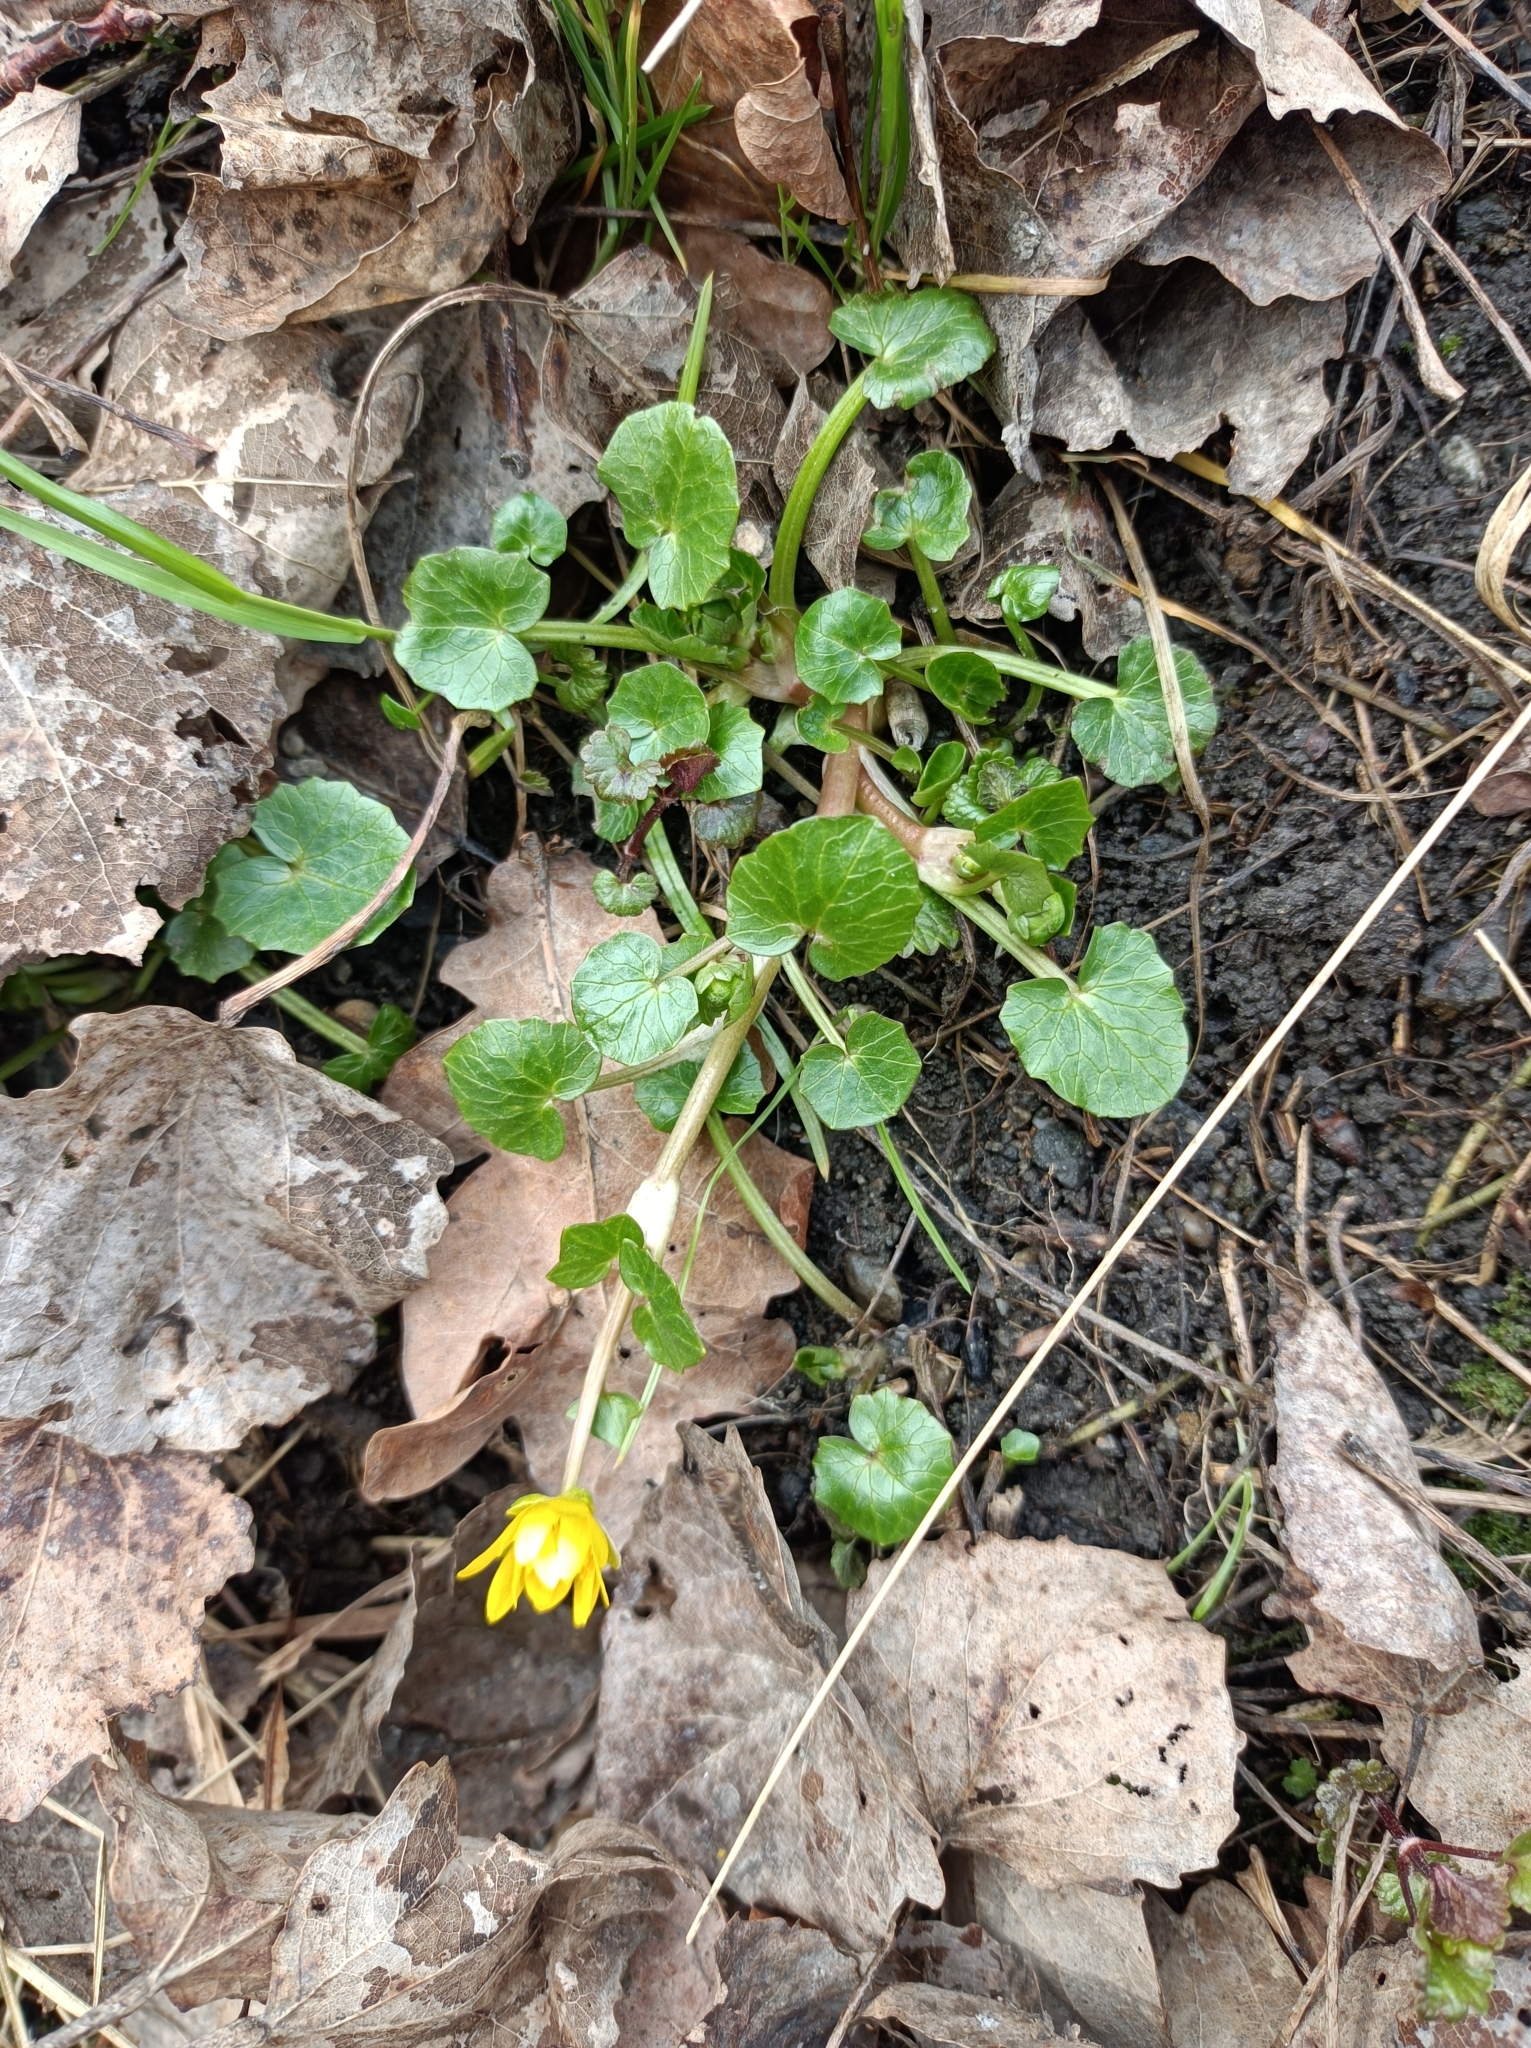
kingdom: Plantae
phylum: Tracheophyta
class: Magnoliopsida
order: Ranunculales
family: Ranunculaceae
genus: Ficaria
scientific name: Ficaria verna
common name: Lesser celandine
